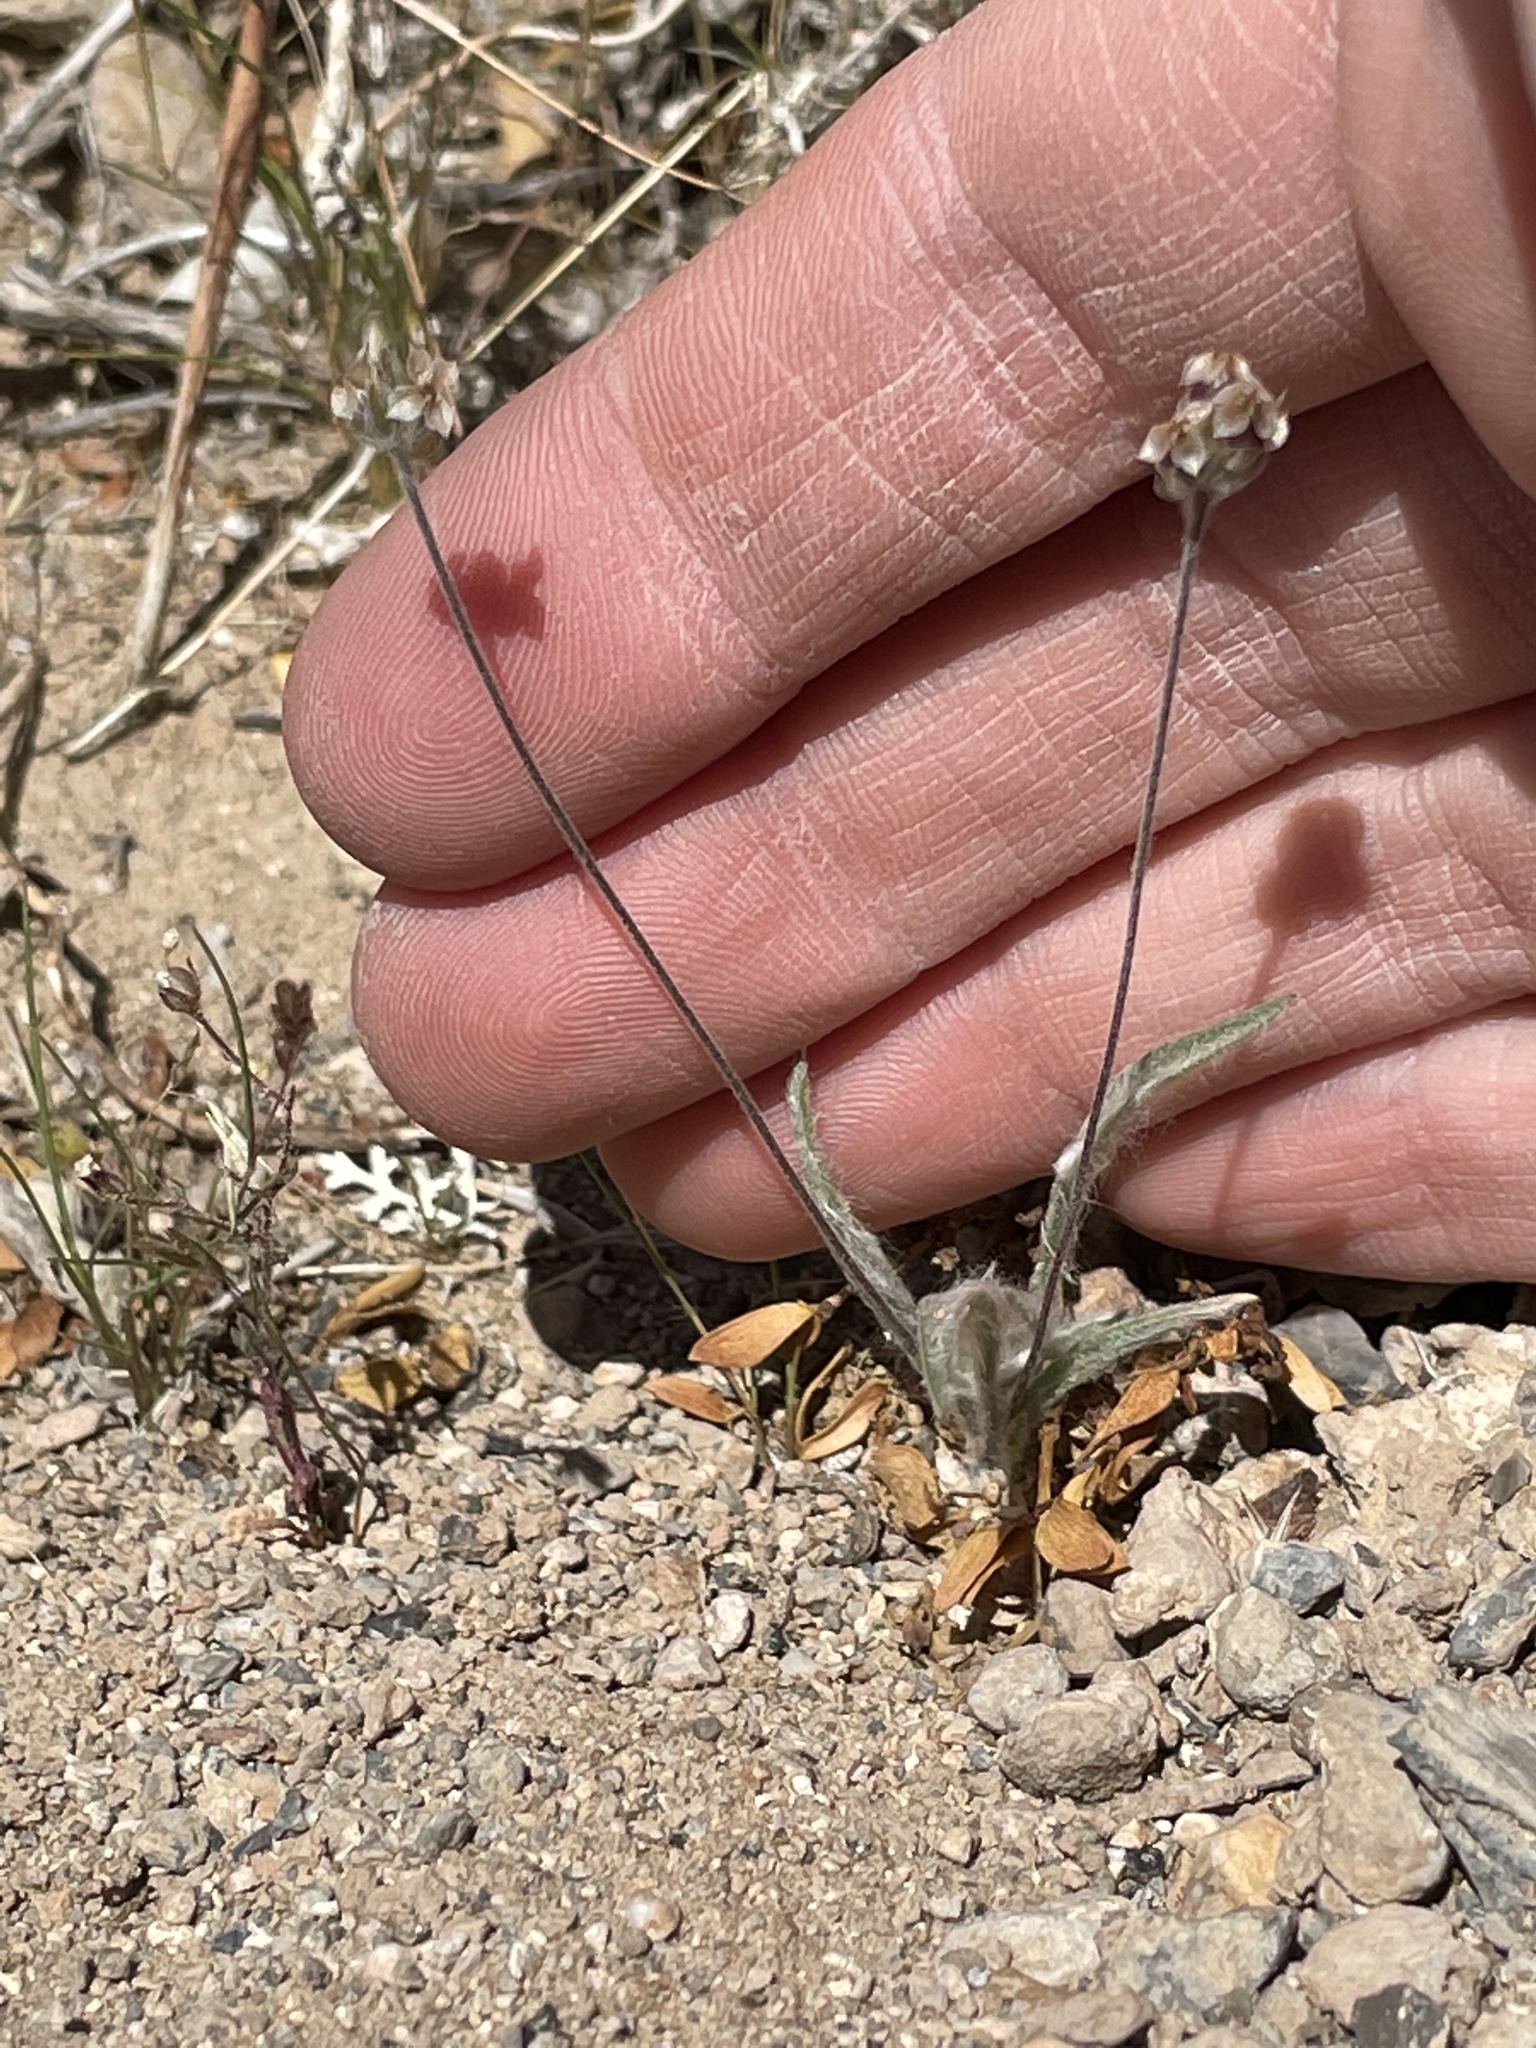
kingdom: Plantae
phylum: Tracheophyta
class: Magnoliopsida
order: Lamiales
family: Plantaginaceae
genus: Plantago
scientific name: Plantago ovata
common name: Blond plantain
